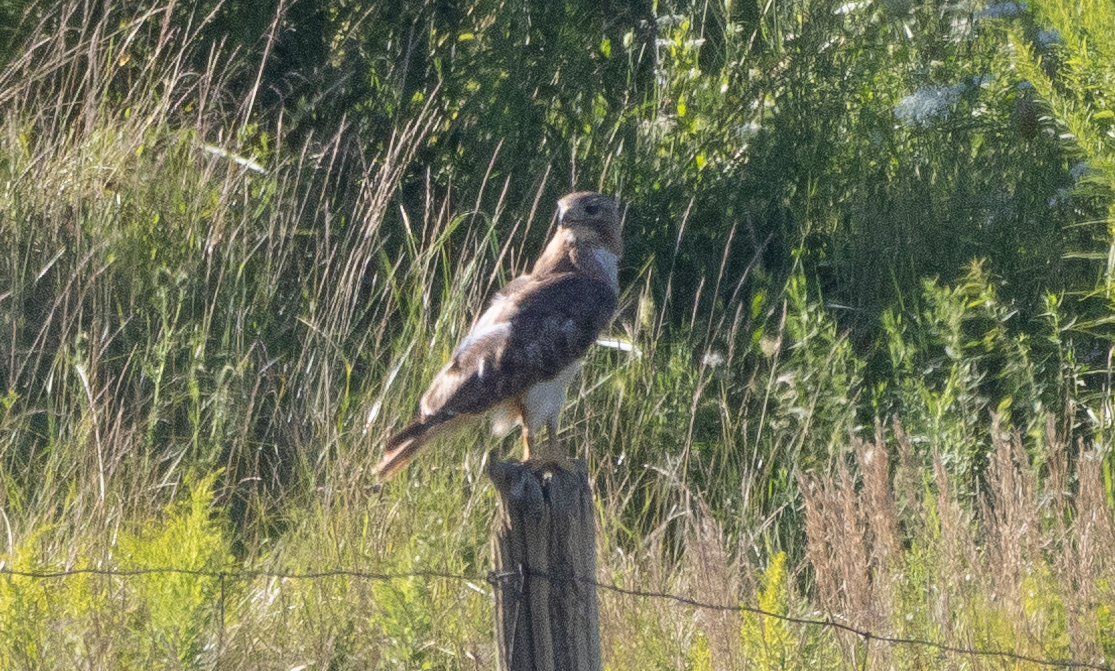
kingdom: Animalia
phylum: Chordata
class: Aves
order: Accipitriformes
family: Accipitridae
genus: Buteo
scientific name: Buteo jamaicensis
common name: Red-tailed hawk
